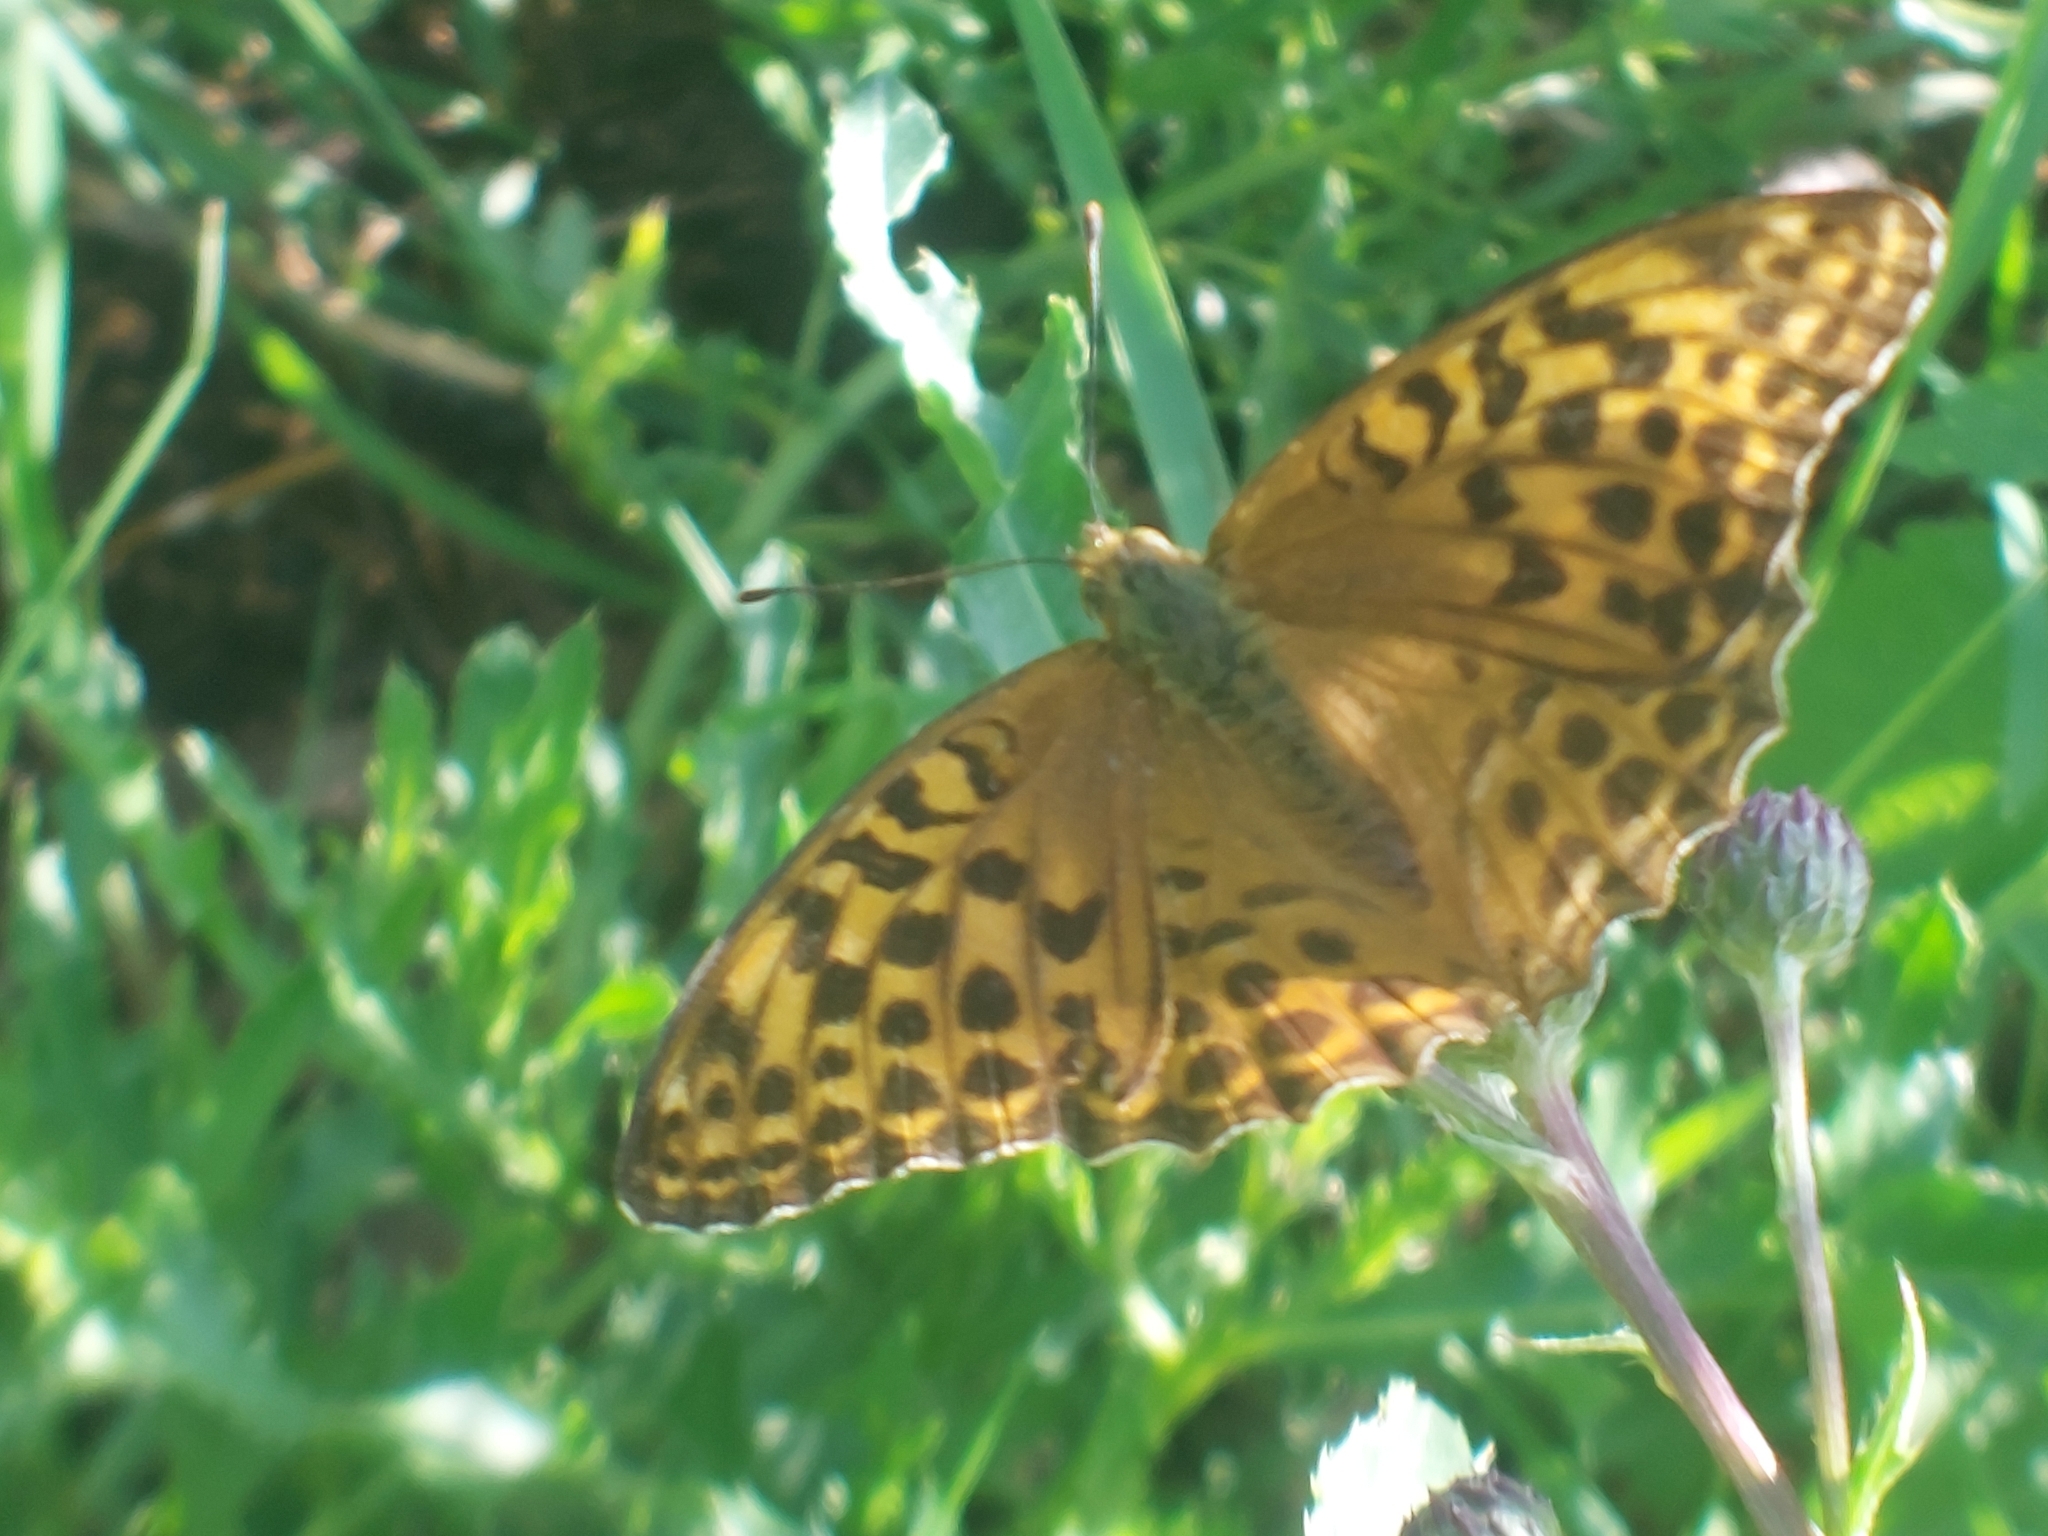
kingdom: Animalia
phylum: Arthropoda
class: Insecta
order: Lepidoptera
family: Nymphalidae
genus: Argynnis
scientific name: Argynnis paphia
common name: Silver-washed fritillary
